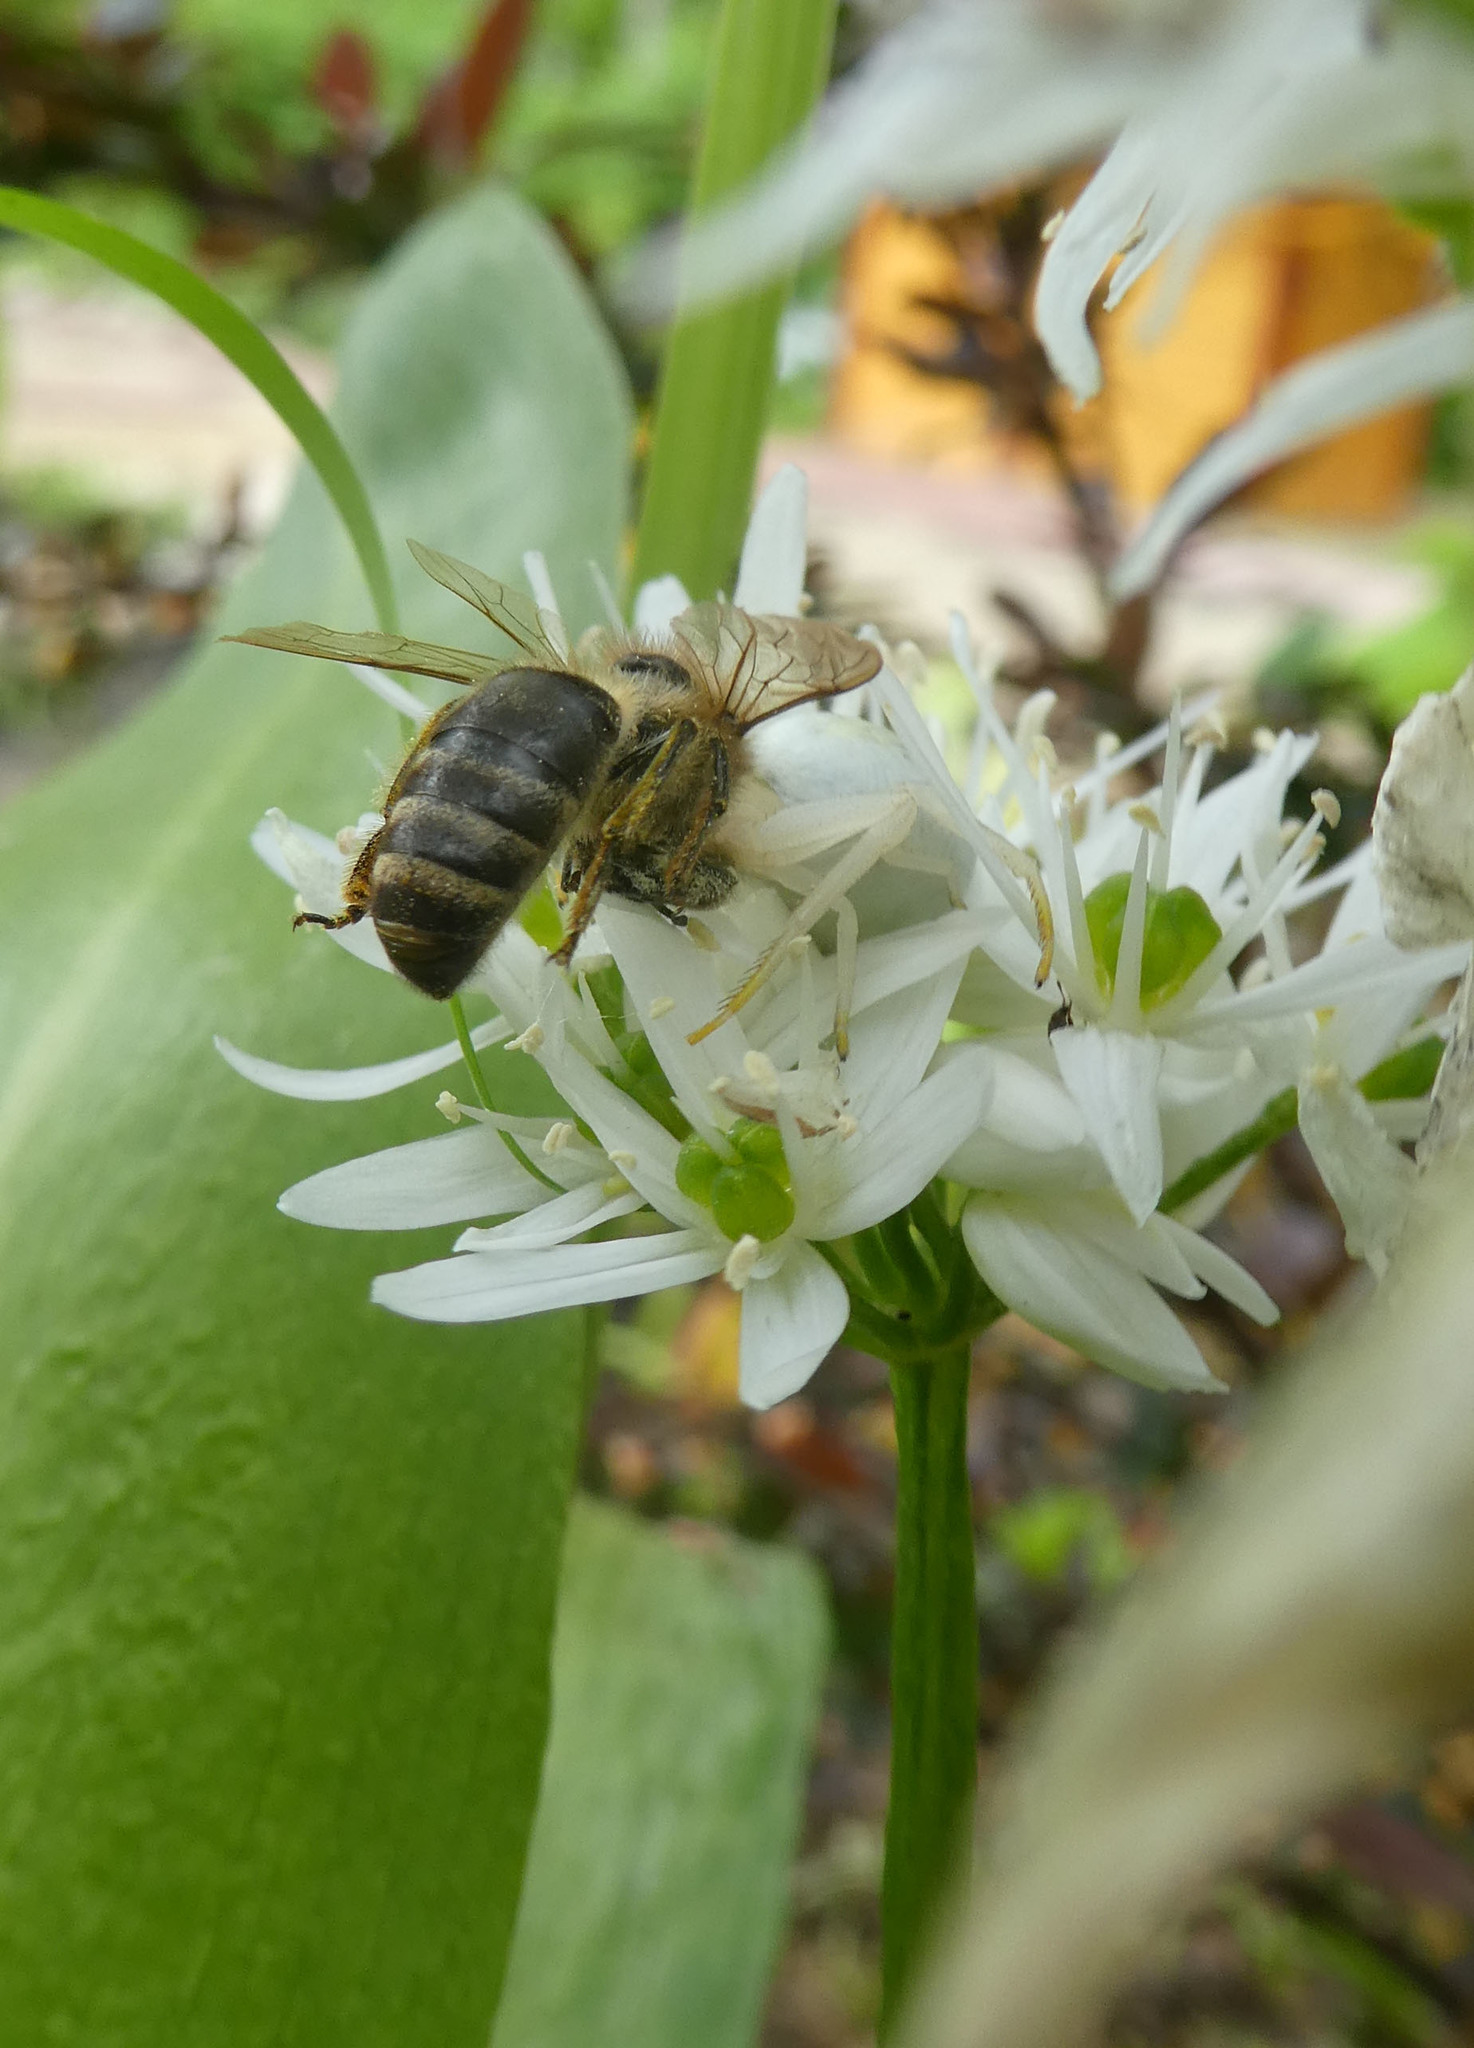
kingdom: Animalia
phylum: Arthropoda
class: Insecta
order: Hymenoptera
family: Apidae
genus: Apis
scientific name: Apis mellifera
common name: Honey bee
